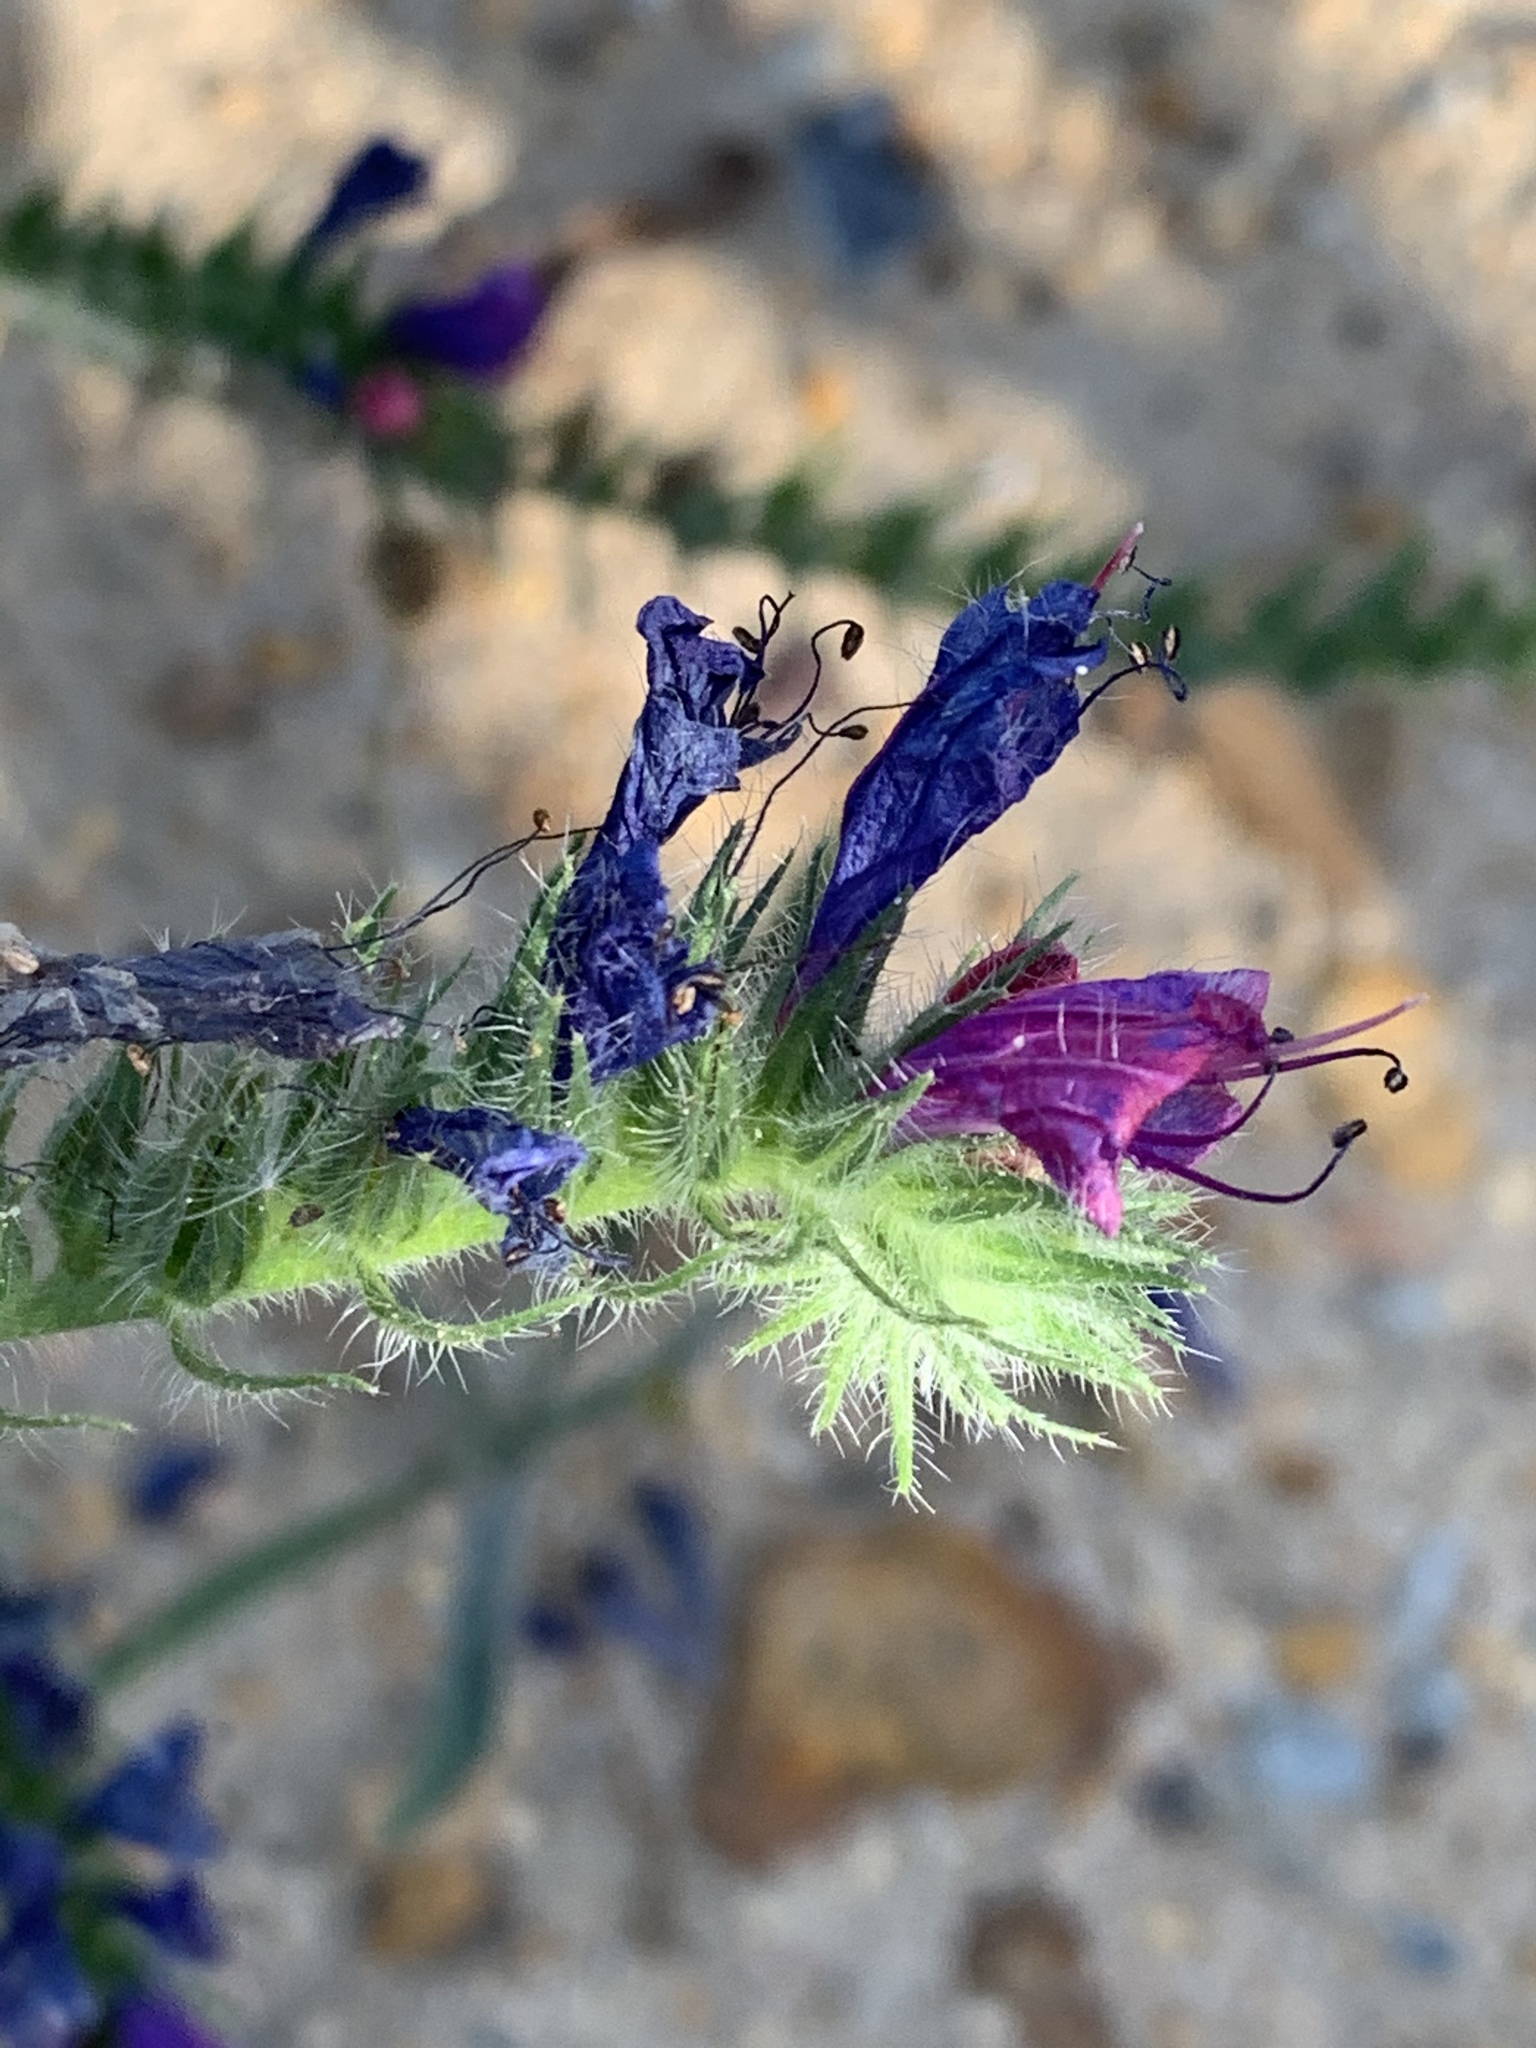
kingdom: Plantae
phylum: Tracheophyta
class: Magnoliopsida
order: Boraginales
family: Boraginaceae
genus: Echium
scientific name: Echium plantagineum
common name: Purple viper's-bugloss
